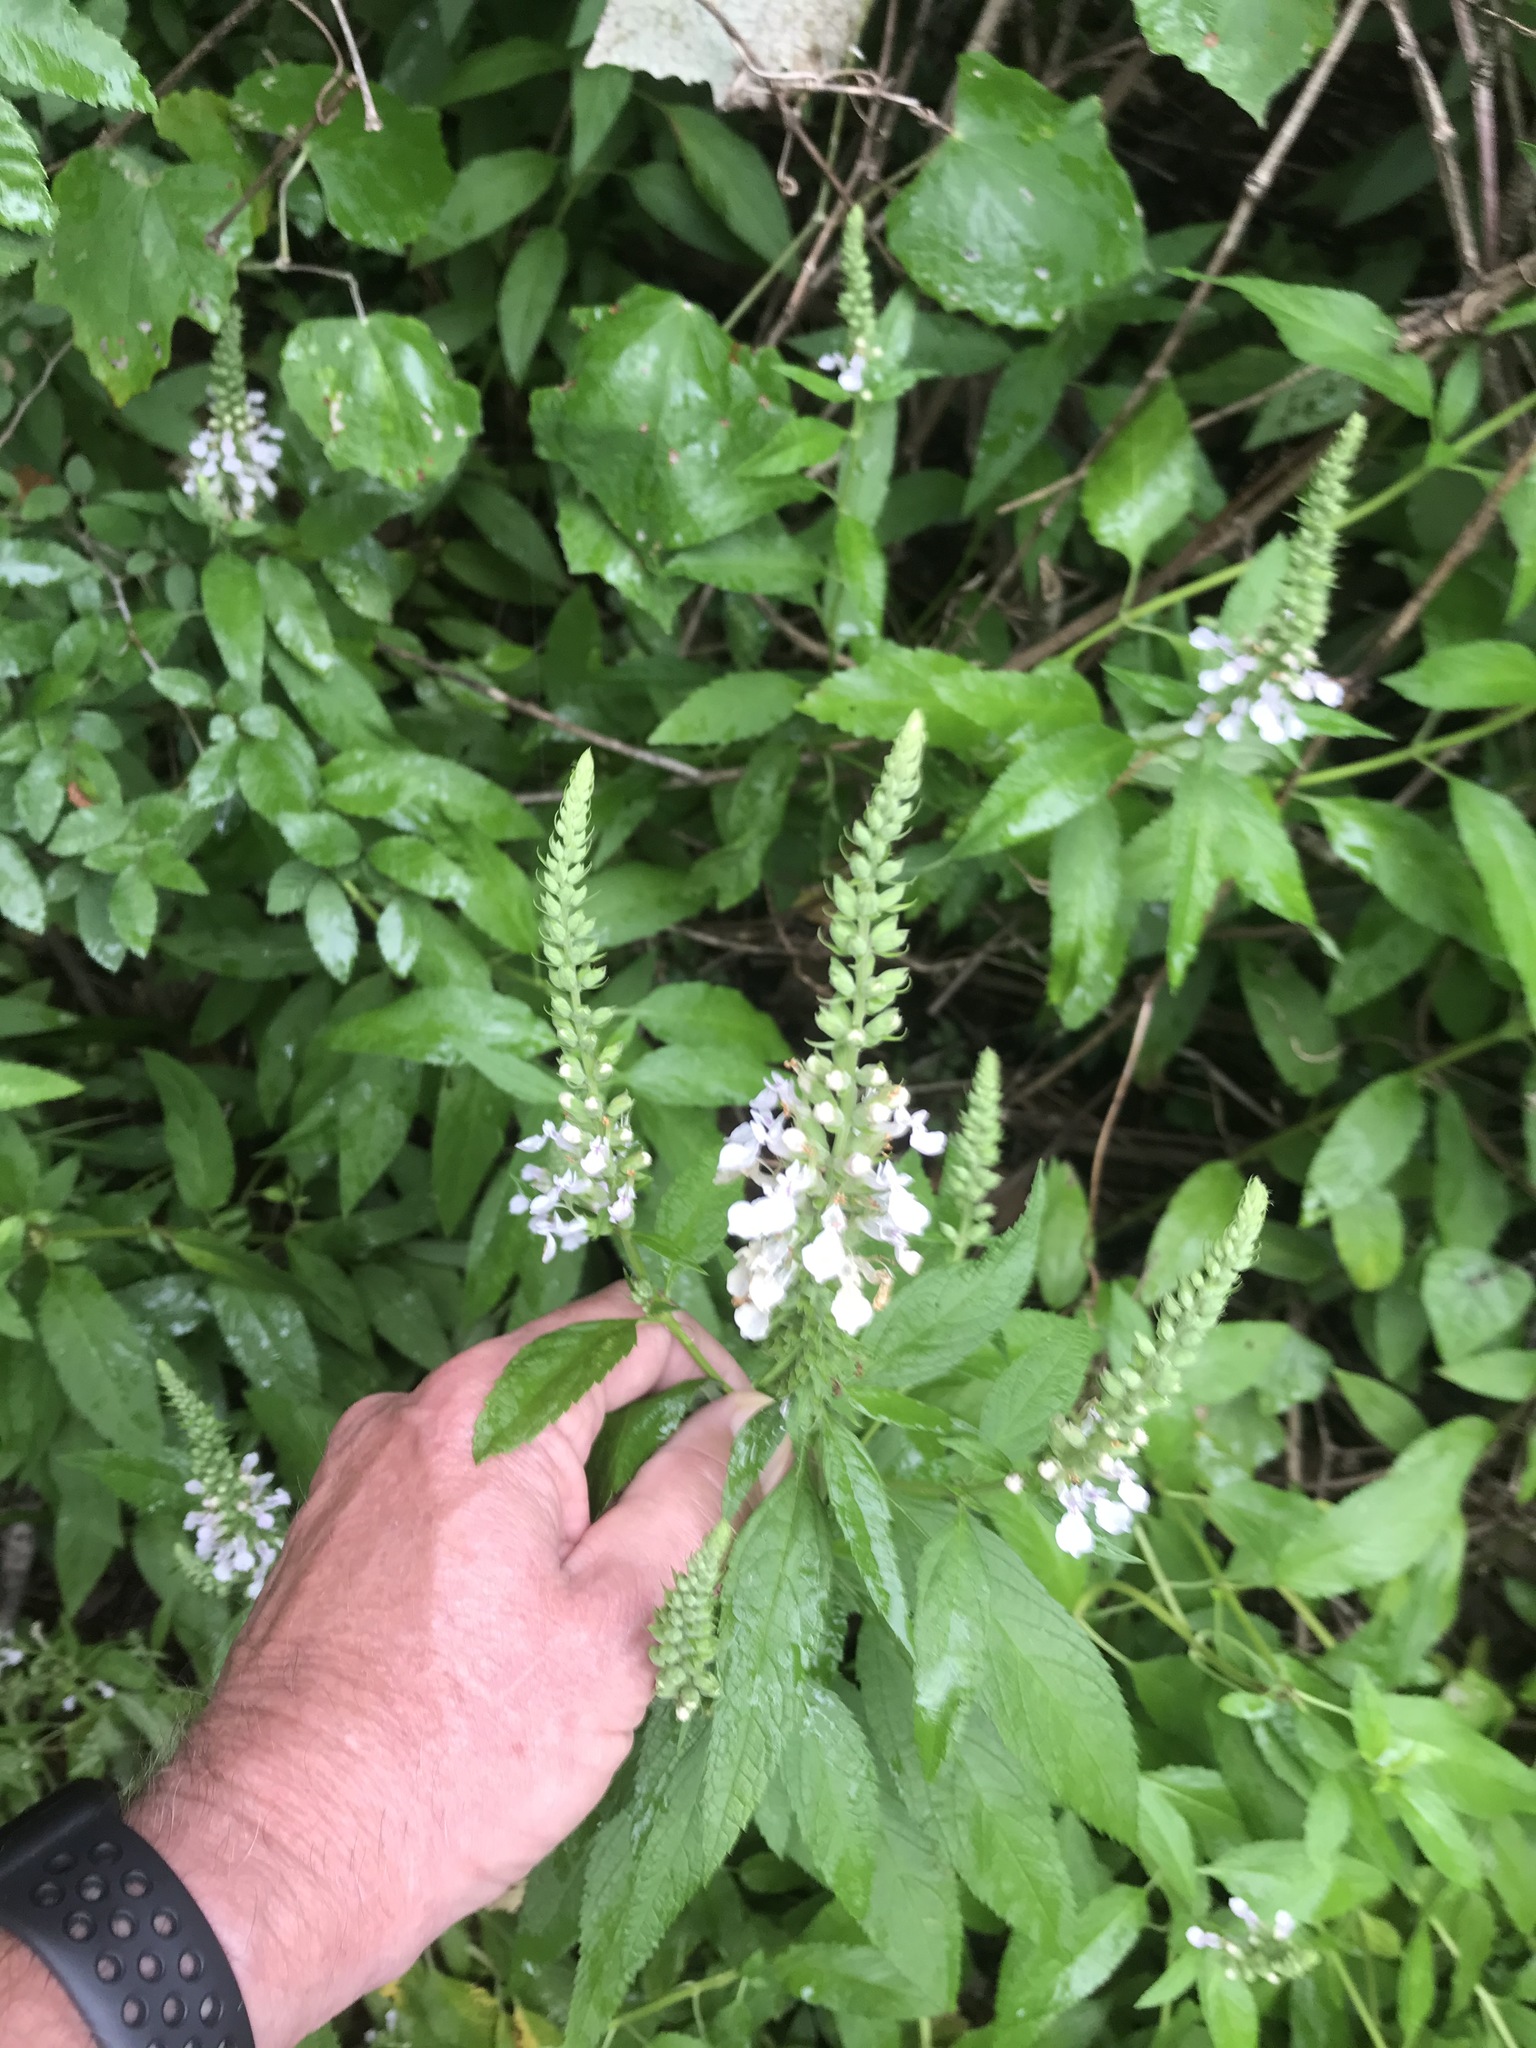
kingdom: Plantae
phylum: Tracheophyta
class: Magnoliopsida
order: Lamiales
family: Lamiaceae
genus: Teucrium
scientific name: Teucrium canadense
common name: American germander
